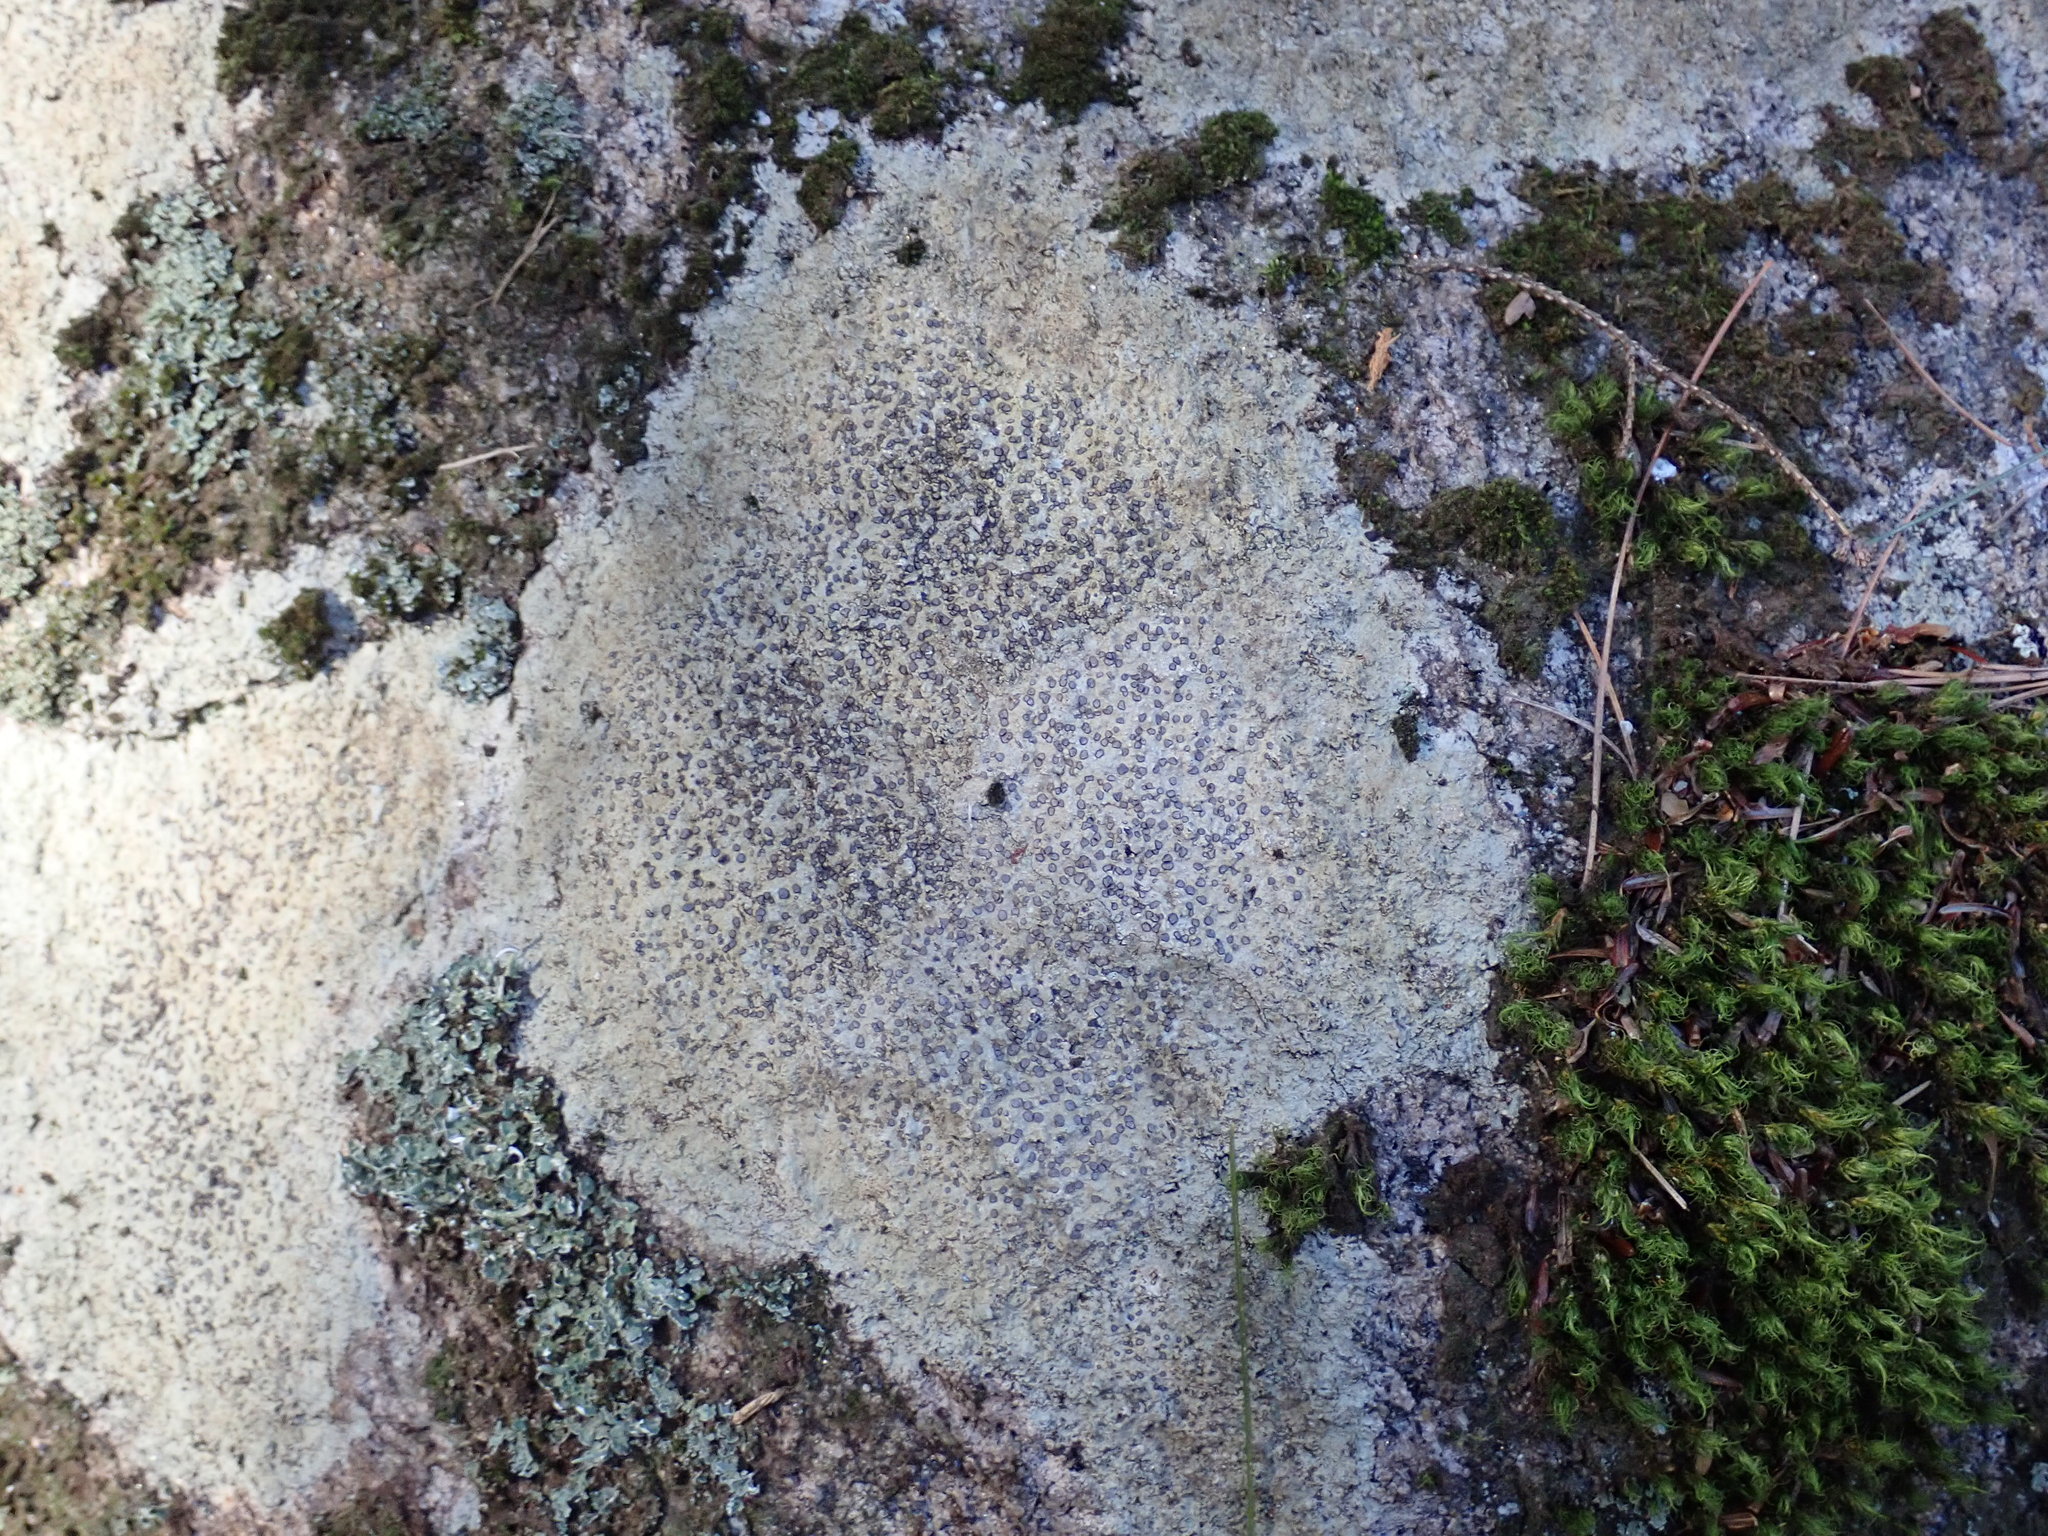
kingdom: Fungi
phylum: Ascomycota
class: Lecanoromycetes
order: Lecideales
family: Lecideaceae
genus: Porpidia
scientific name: Porpidia albocaerulescens
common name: Smokey-eyed boulder lichen
